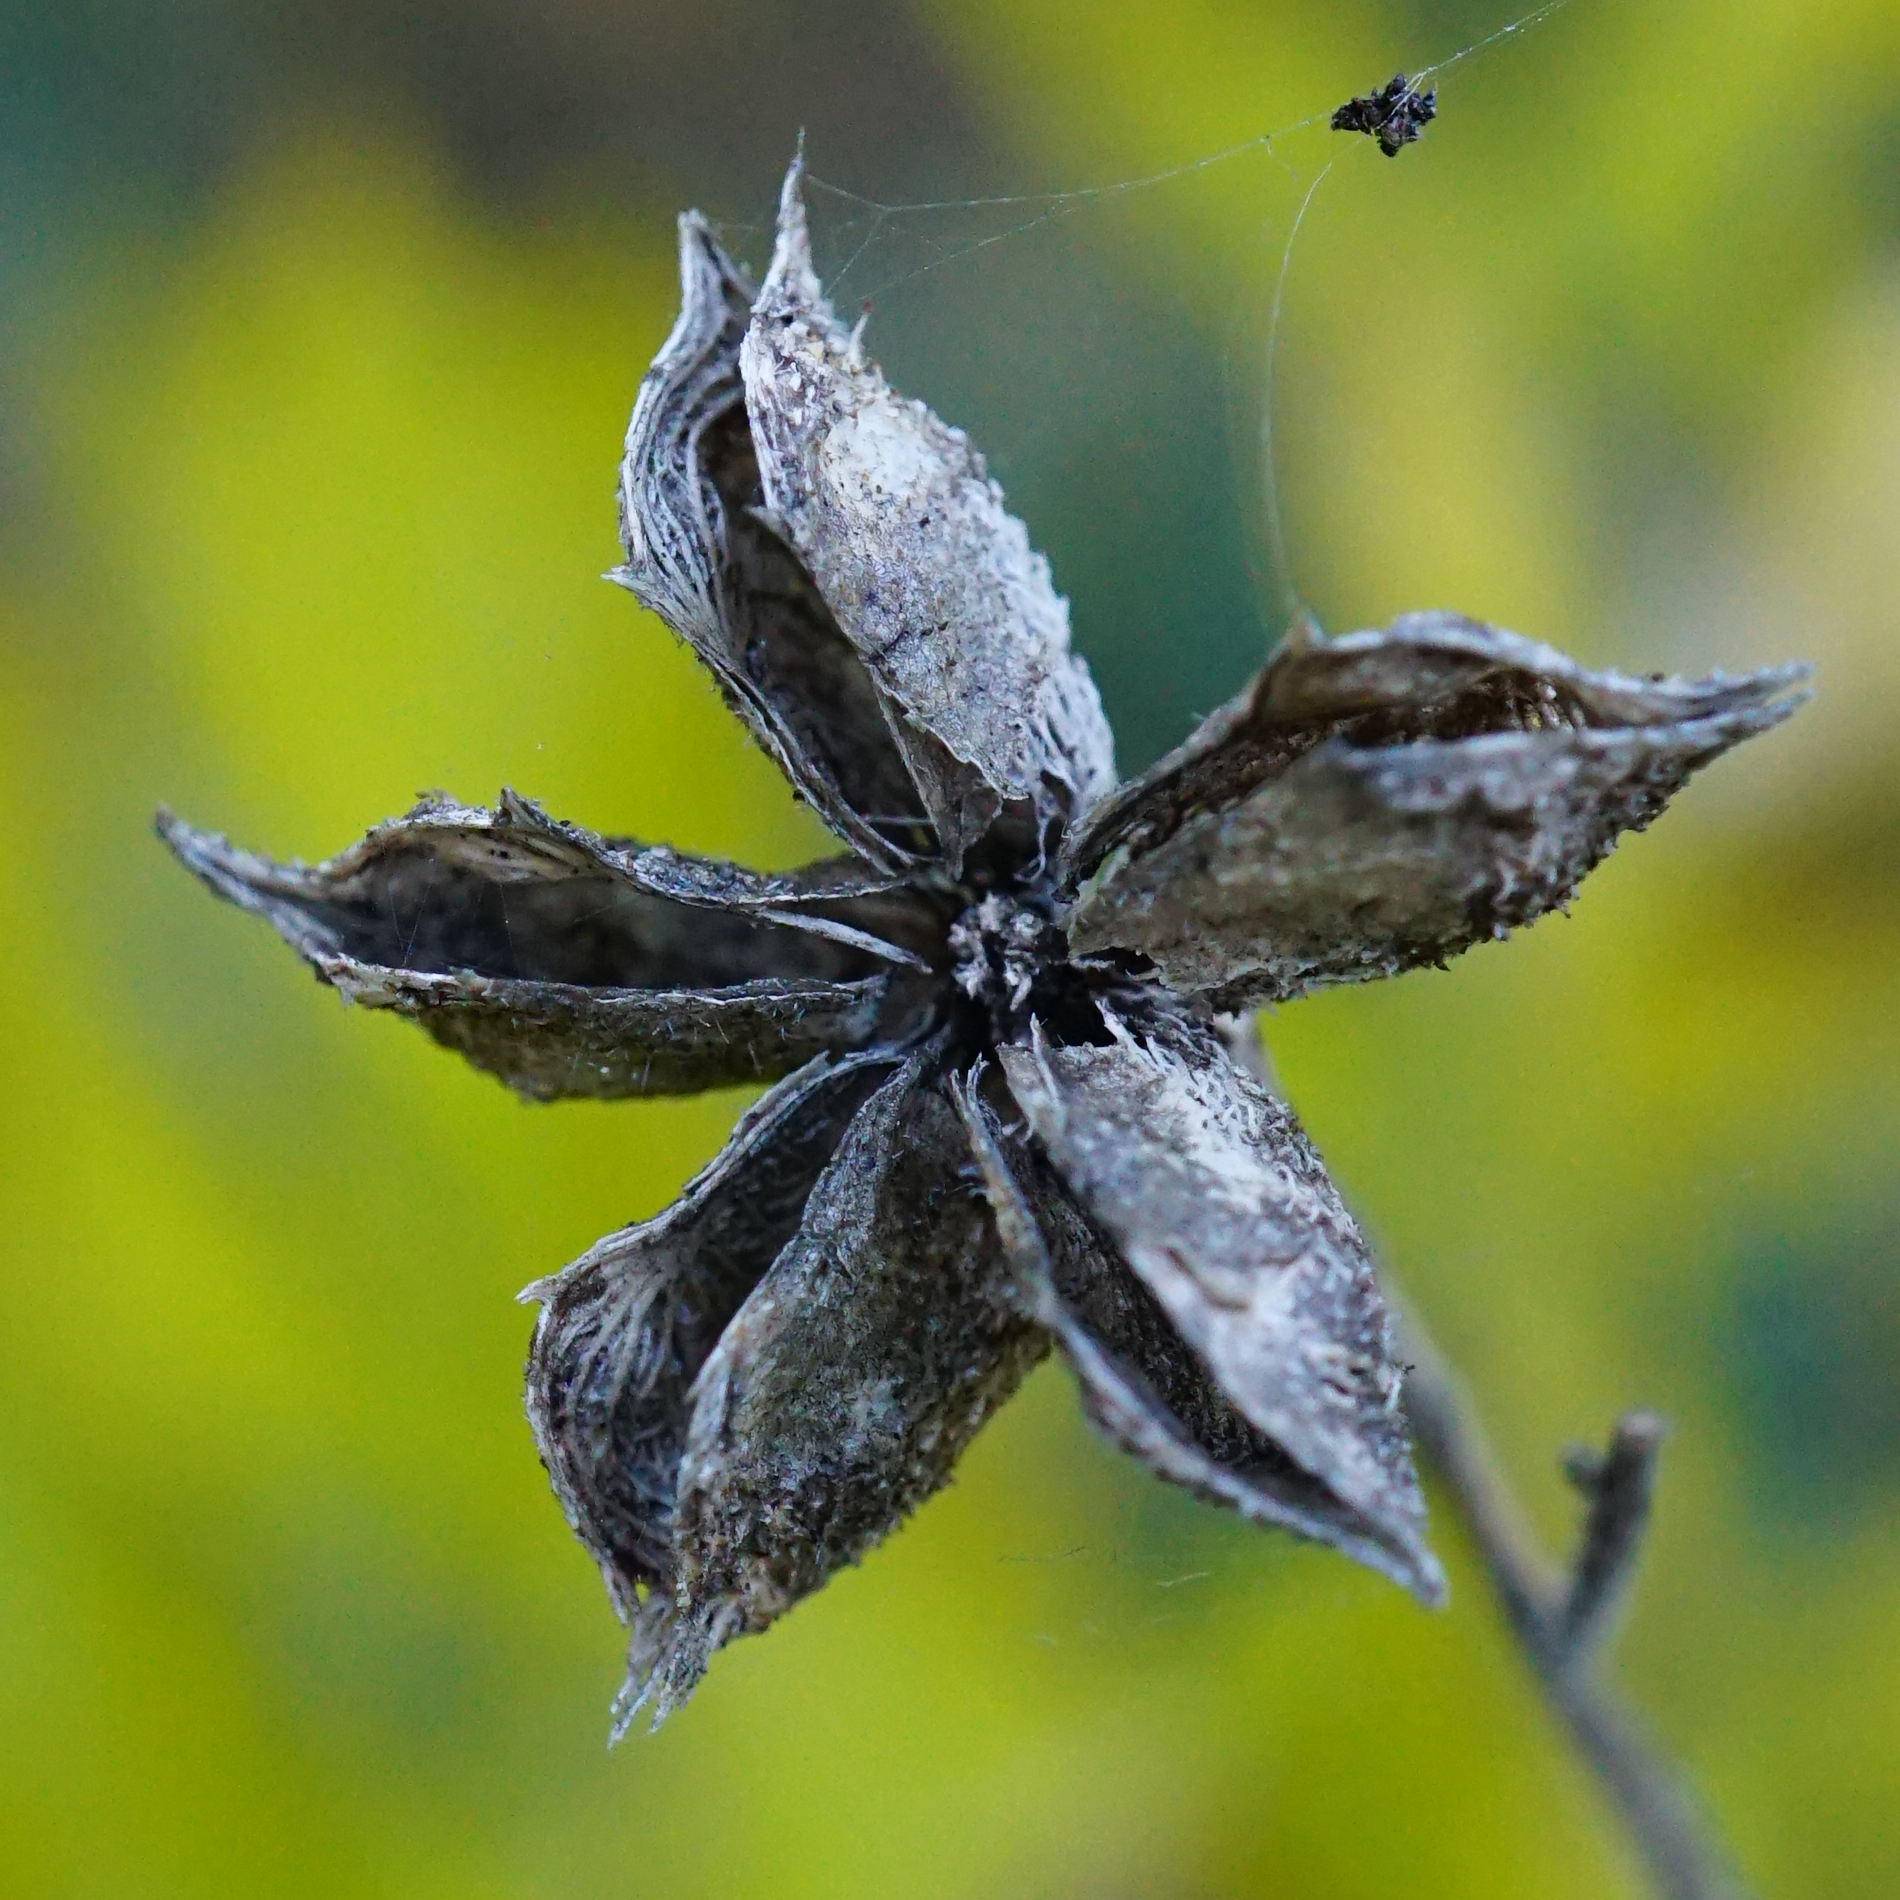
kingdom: Plantae
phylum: Tracheophyta
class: Magnoliopsida
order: Sapindales
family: Rutaceae
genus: Dictamnus
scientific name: Dictamnus albus
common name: Gasplant
